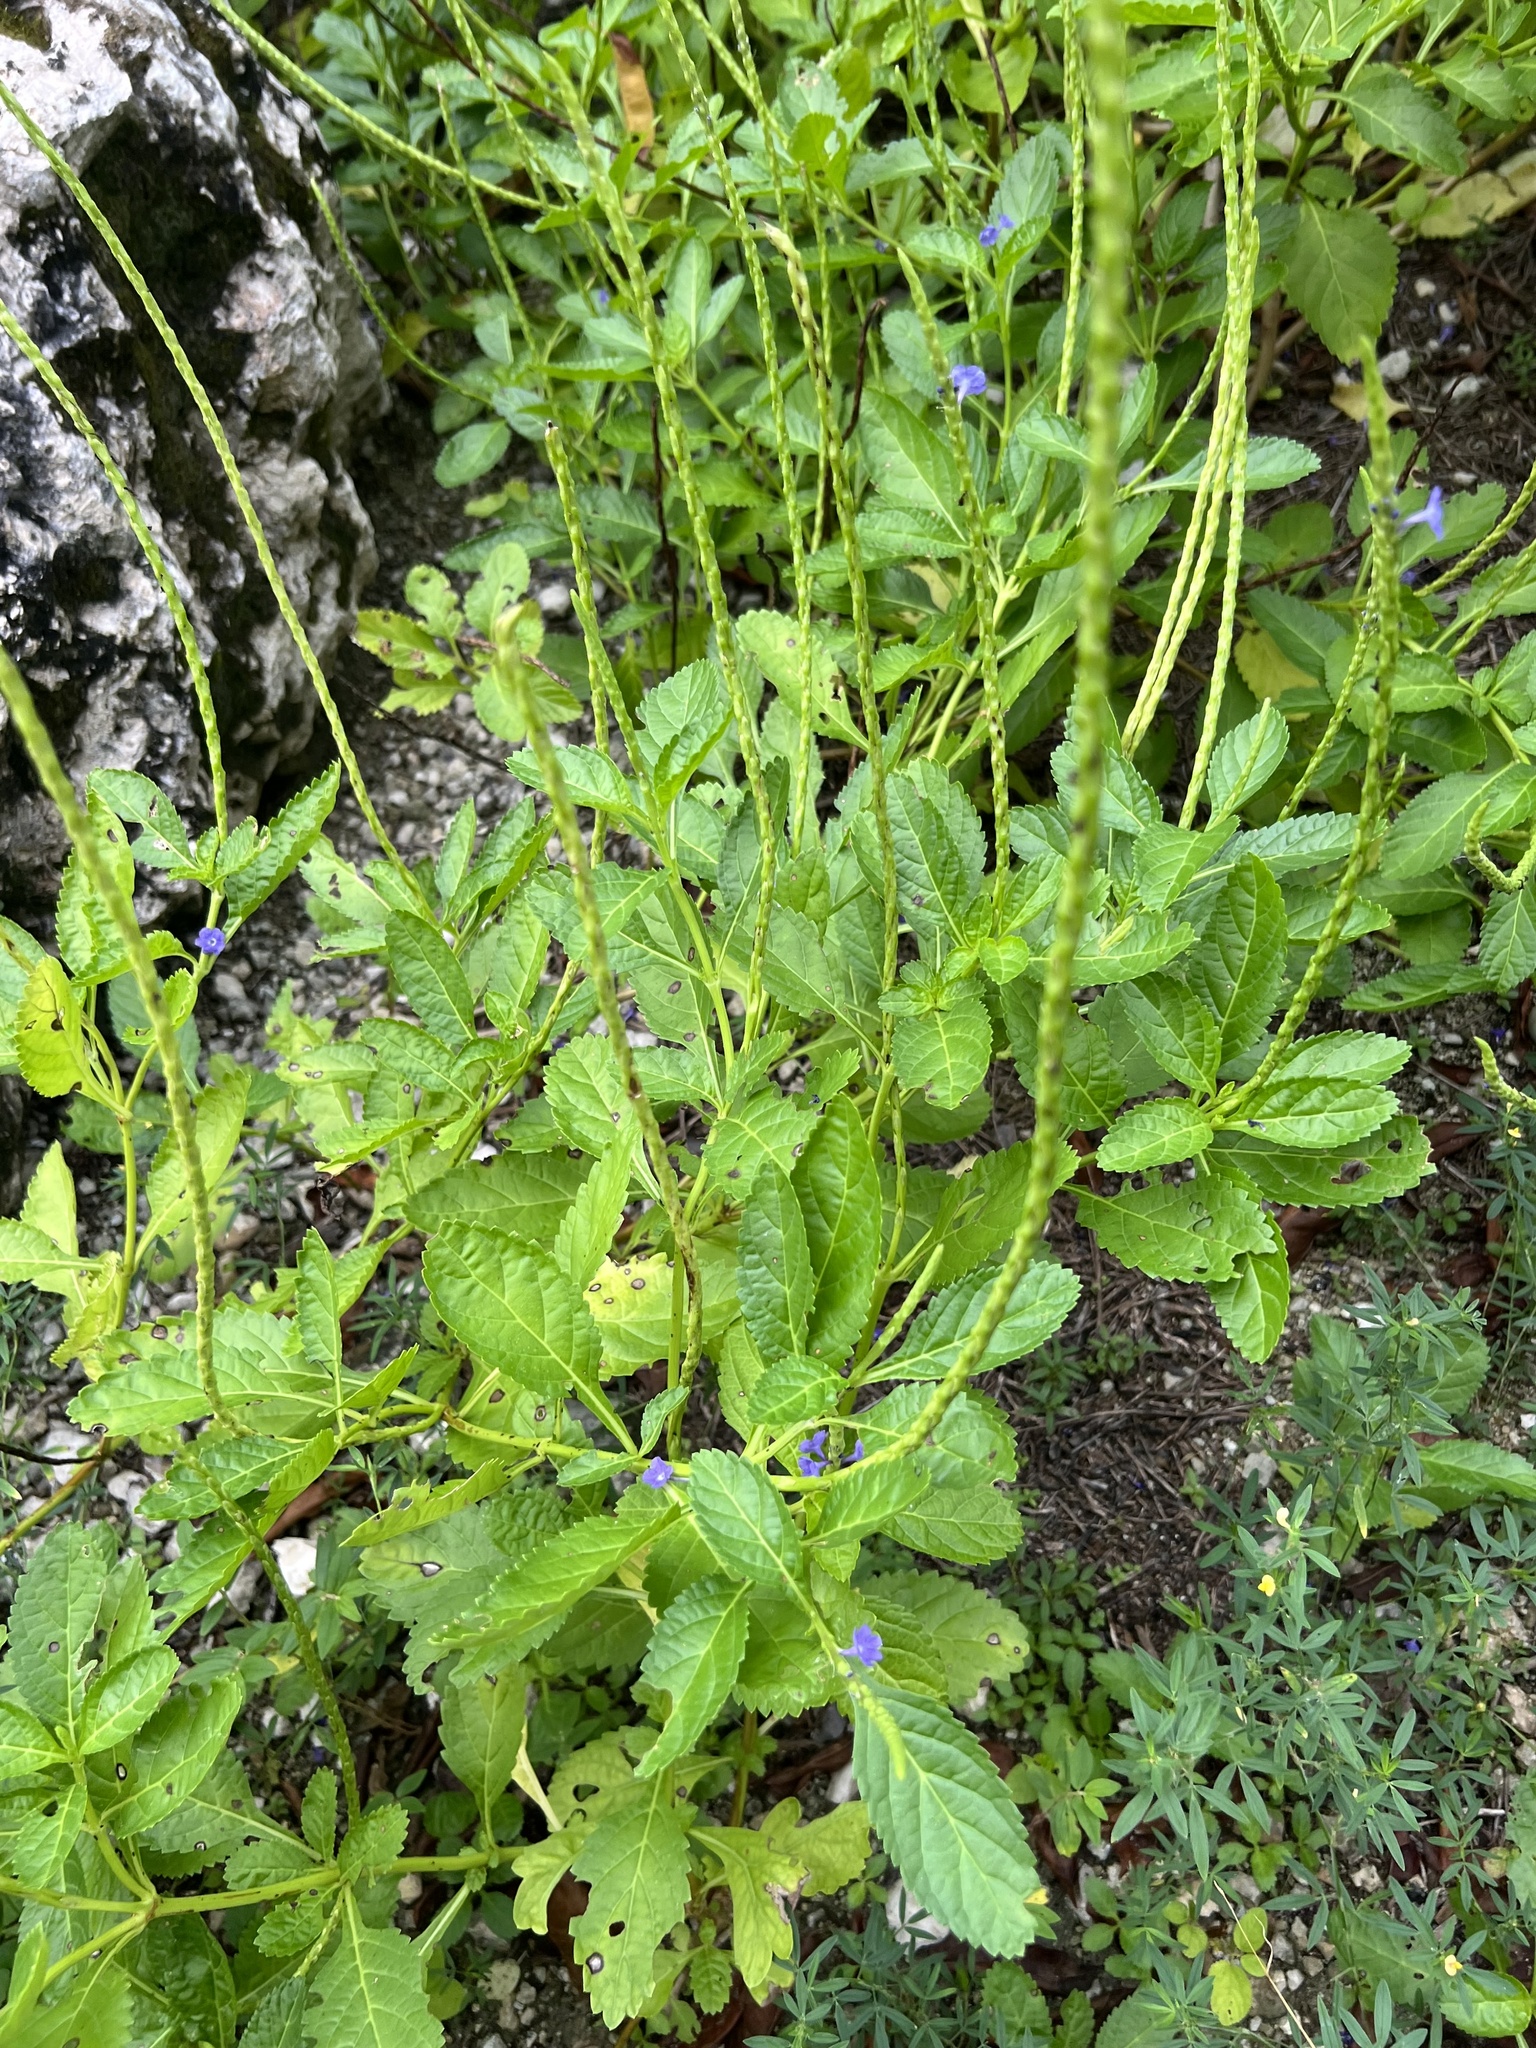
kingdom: Plantae
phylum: Tracheophyta
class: Magnoliopsida
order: Lamiales
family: Verbenaceae
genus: Stachytarpheta
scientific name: Stachytarpheta jamaicensis
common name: Light-blue snakeweed
